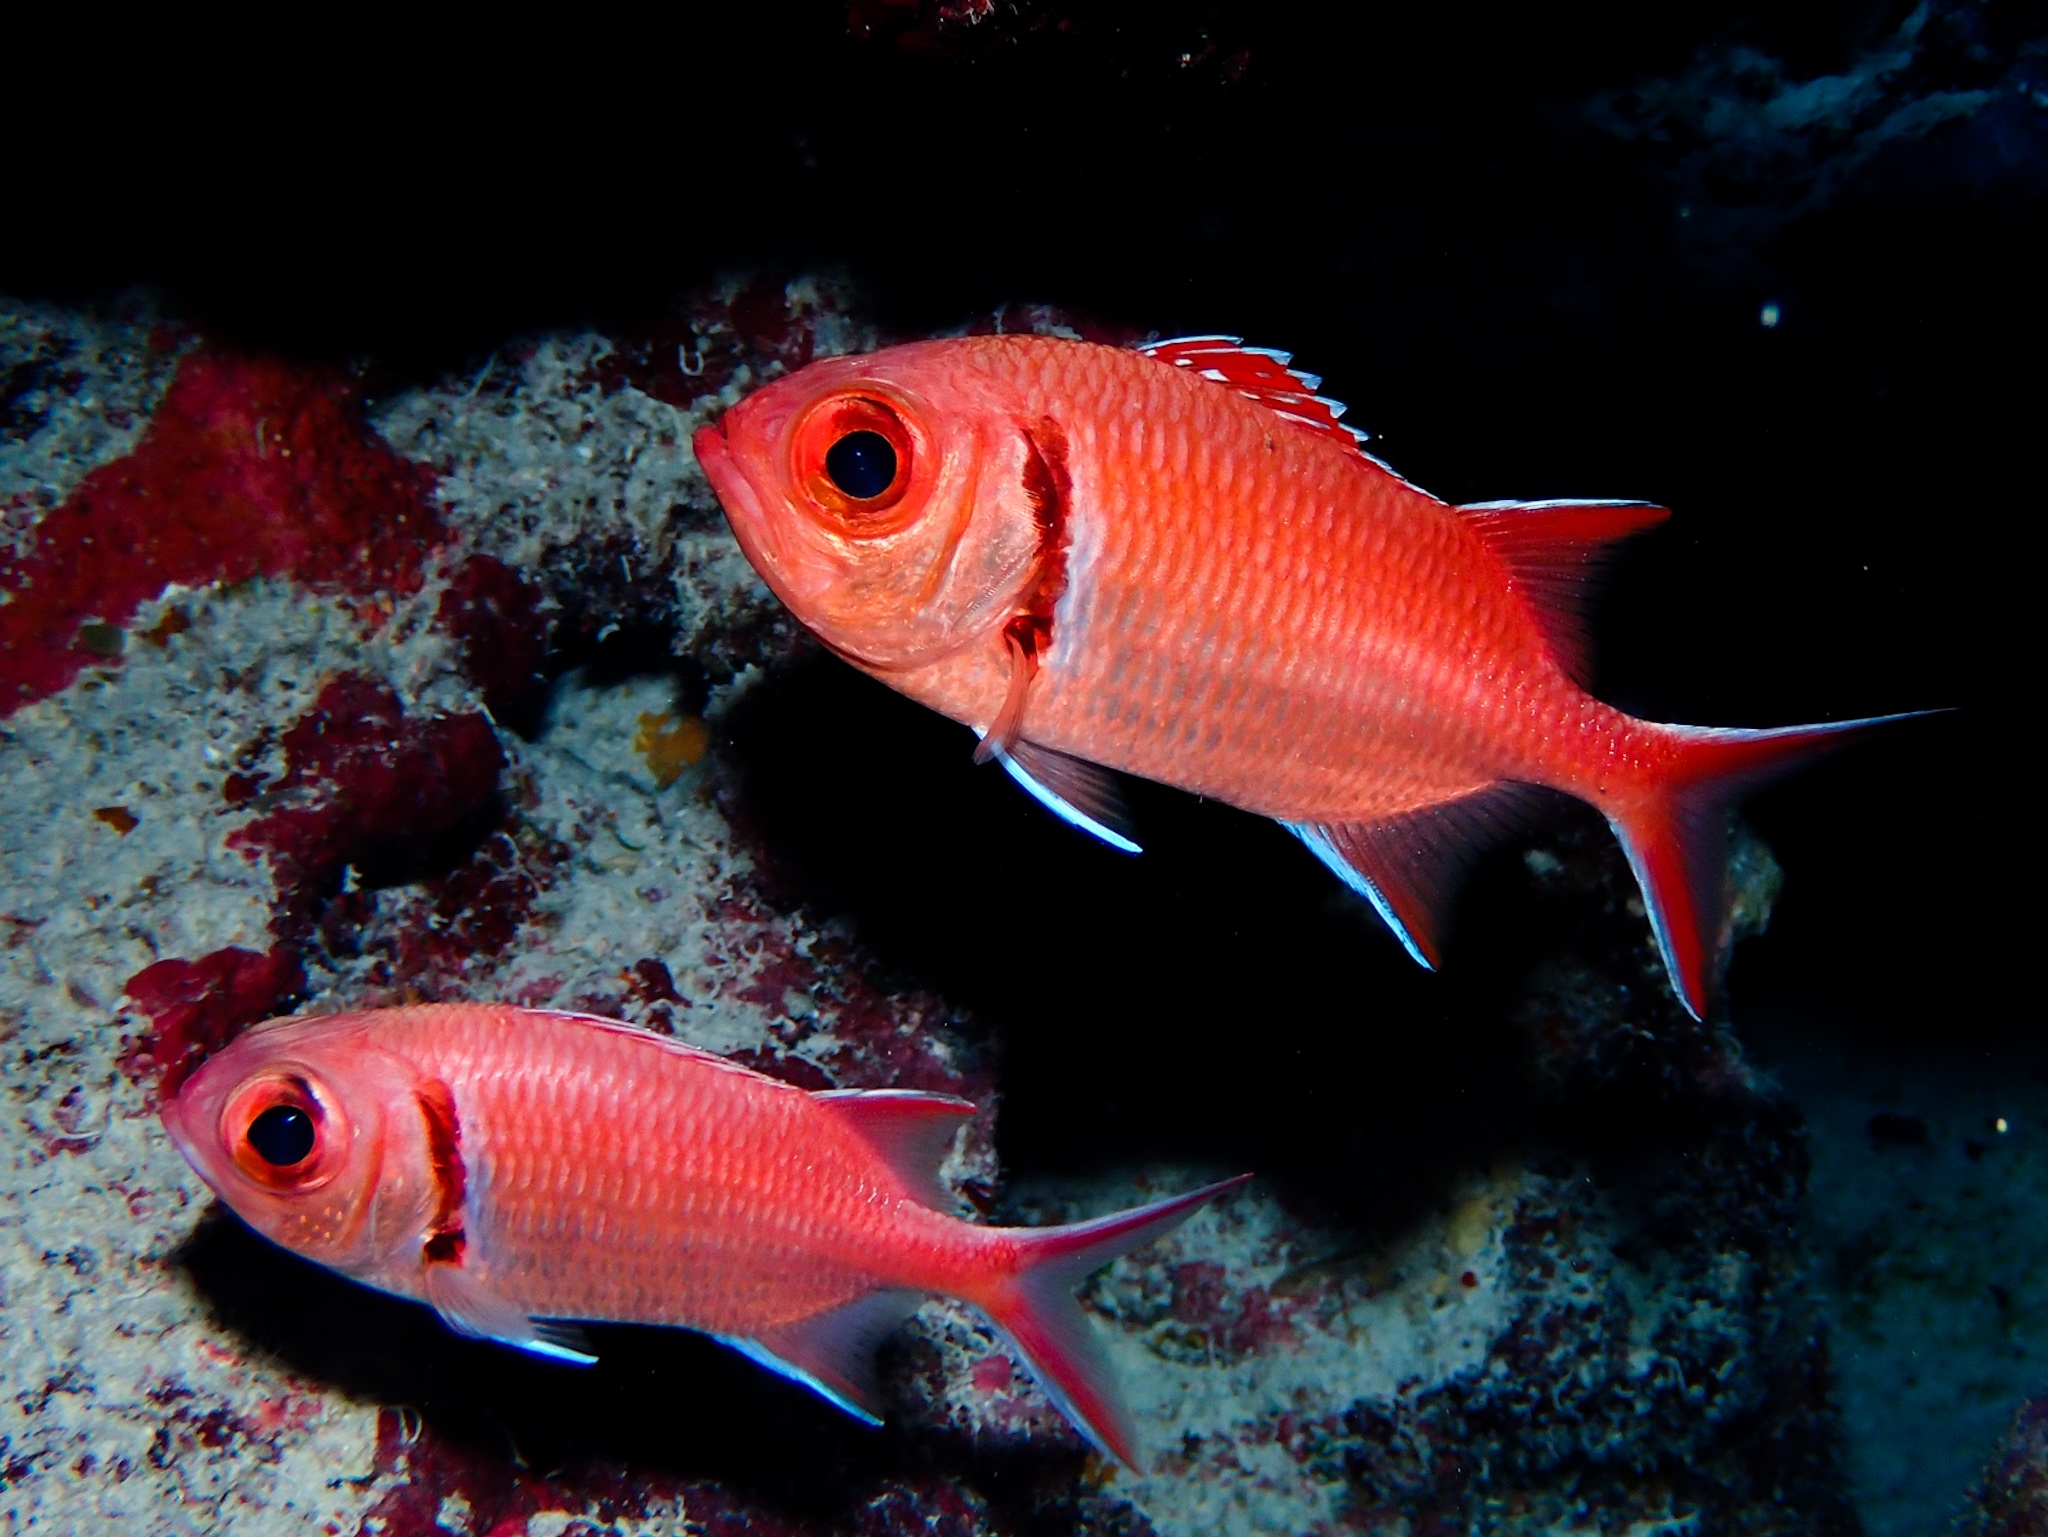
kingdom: Animalia
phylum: Chordata
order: Beryciformes
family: Holocentridae
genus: Myripristis
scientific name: Myripristis jacobus
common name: Blackbar soldierfish
